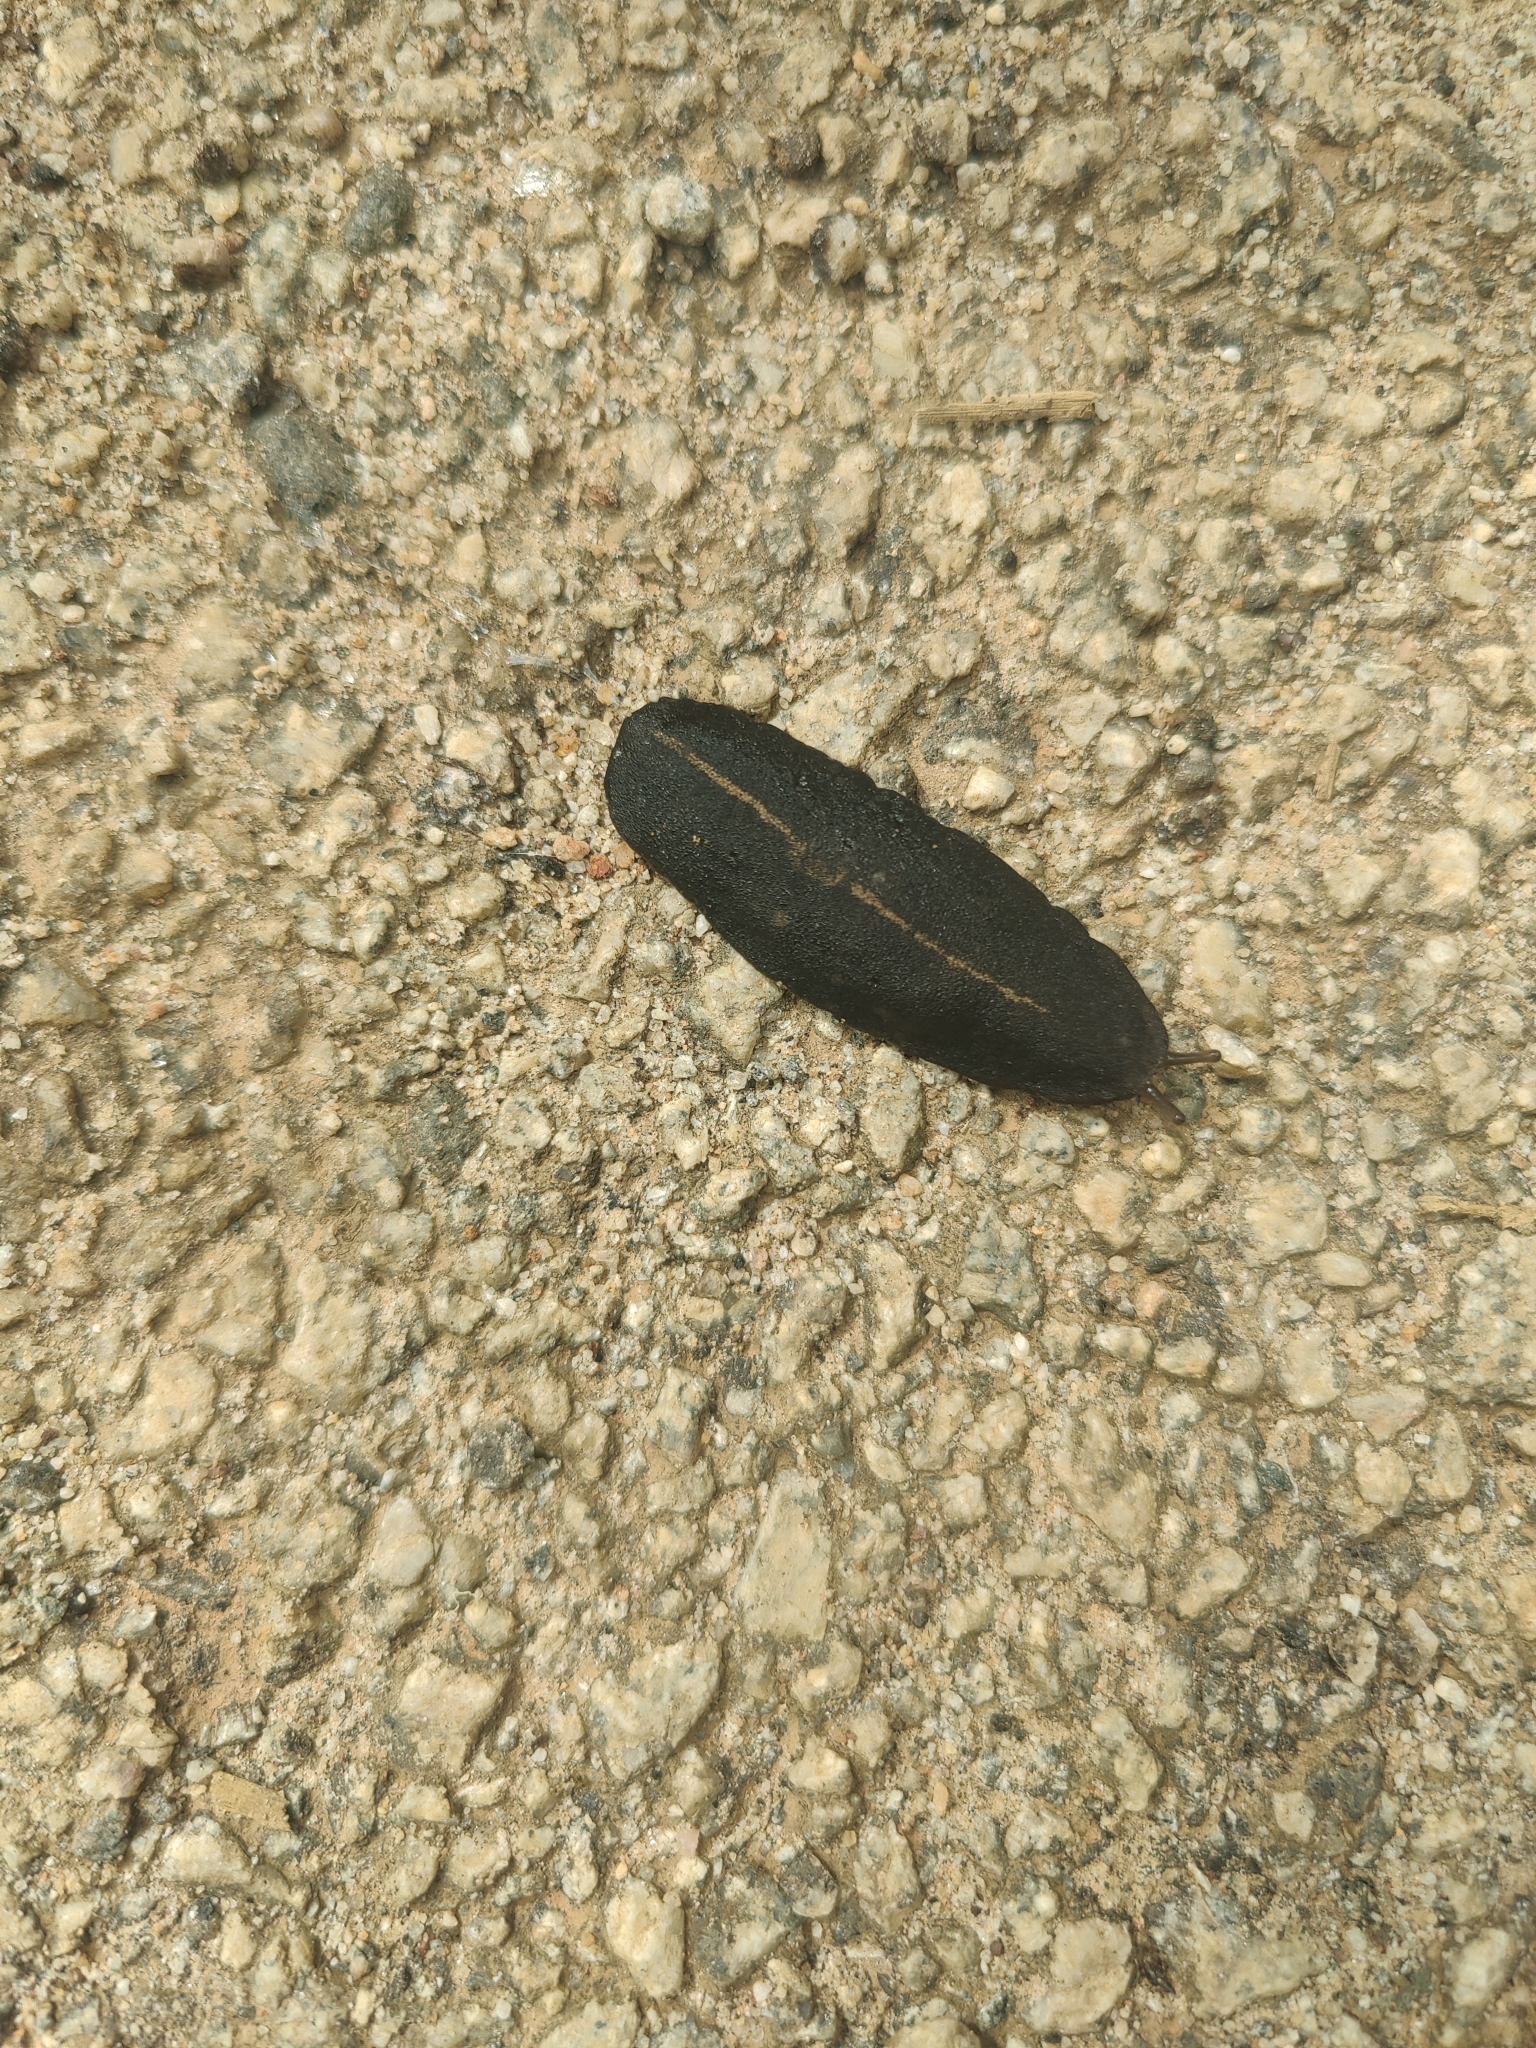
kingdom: Animalia
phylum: Mollusca
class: Gastropoda
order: Systellommatophora
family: Veronicellidae
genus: Laevicaulis
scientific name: Laevicaulis alte
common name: Tropical leatherleaf
